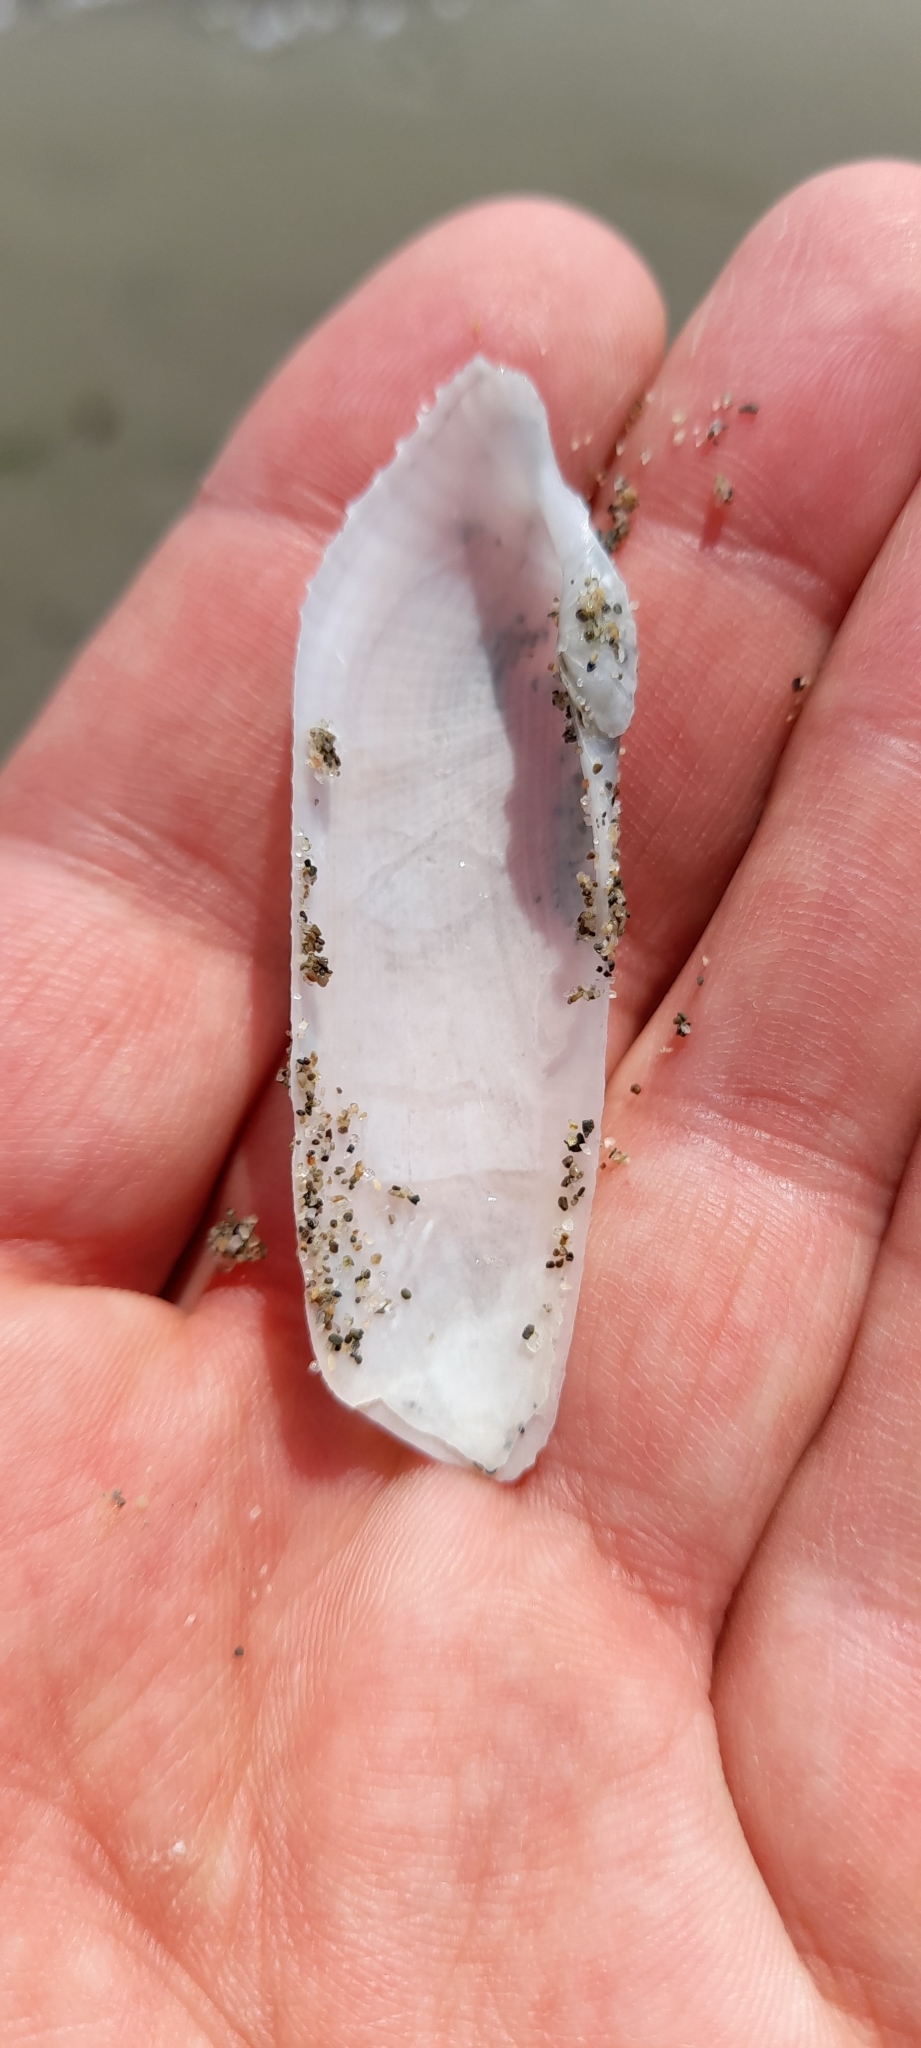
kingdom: Animalia
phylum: Mollusca
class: Bivalvia
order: Myida
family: Pholadidae
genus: Pholas
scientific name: Pholas dactylus
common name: Common piddock
